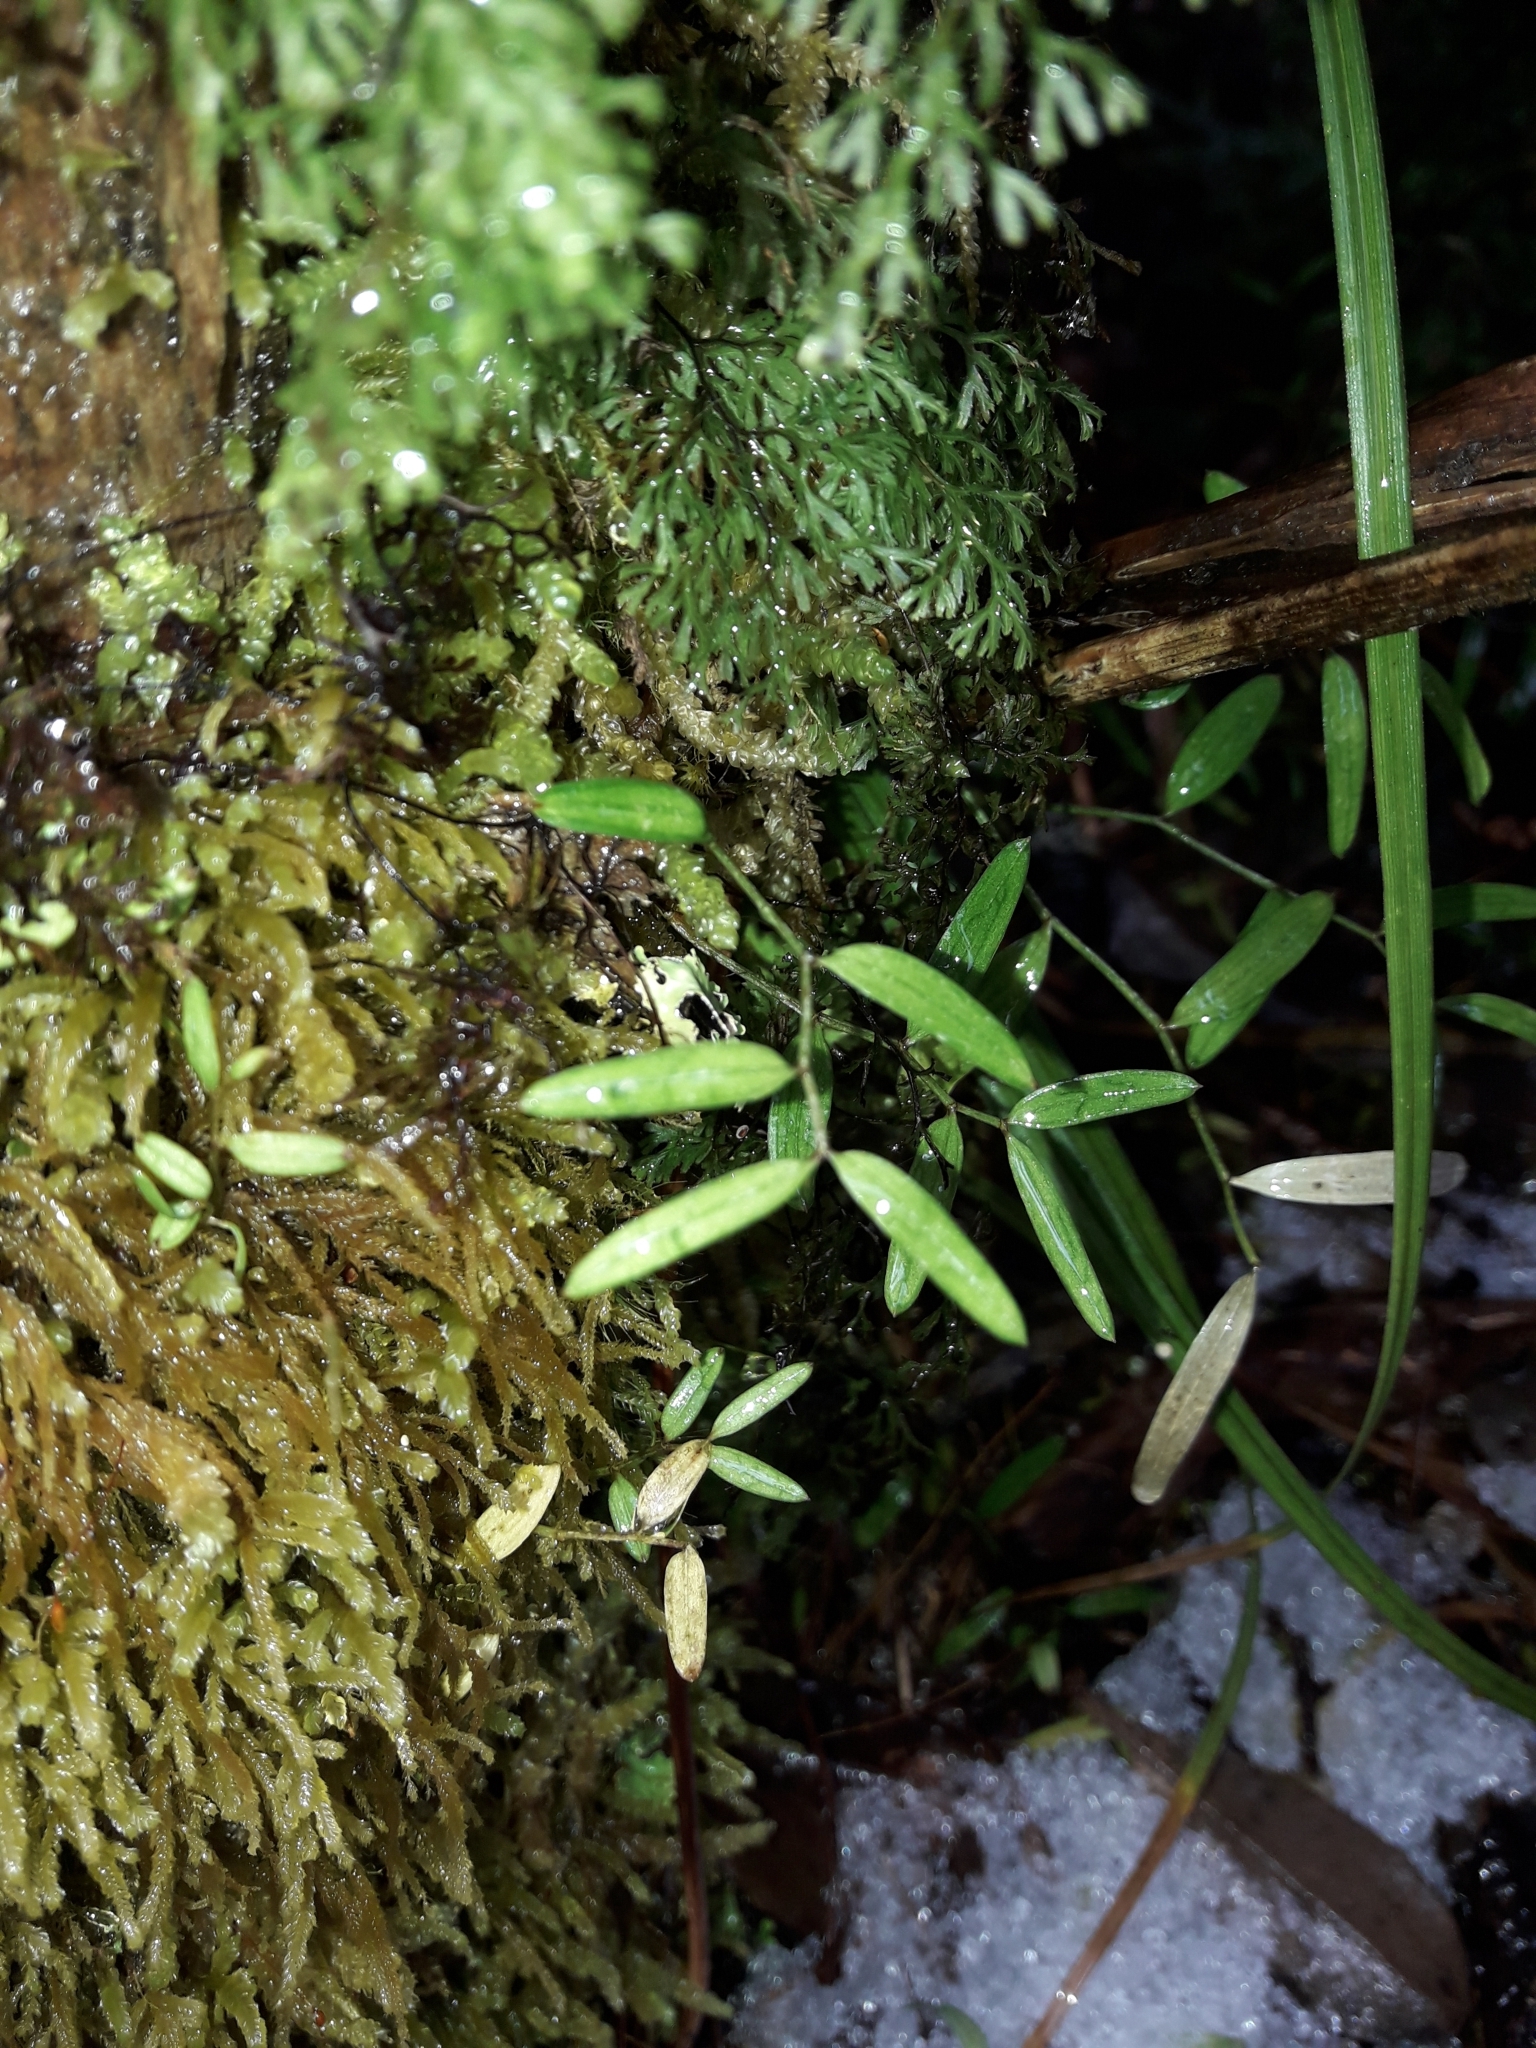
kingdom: Plantae
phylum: Tracheophyta
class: Liliopsida
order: Liliales
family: Alstroemeriaceae
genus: Luzuriaga
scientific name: Luzuriaga parviflora
